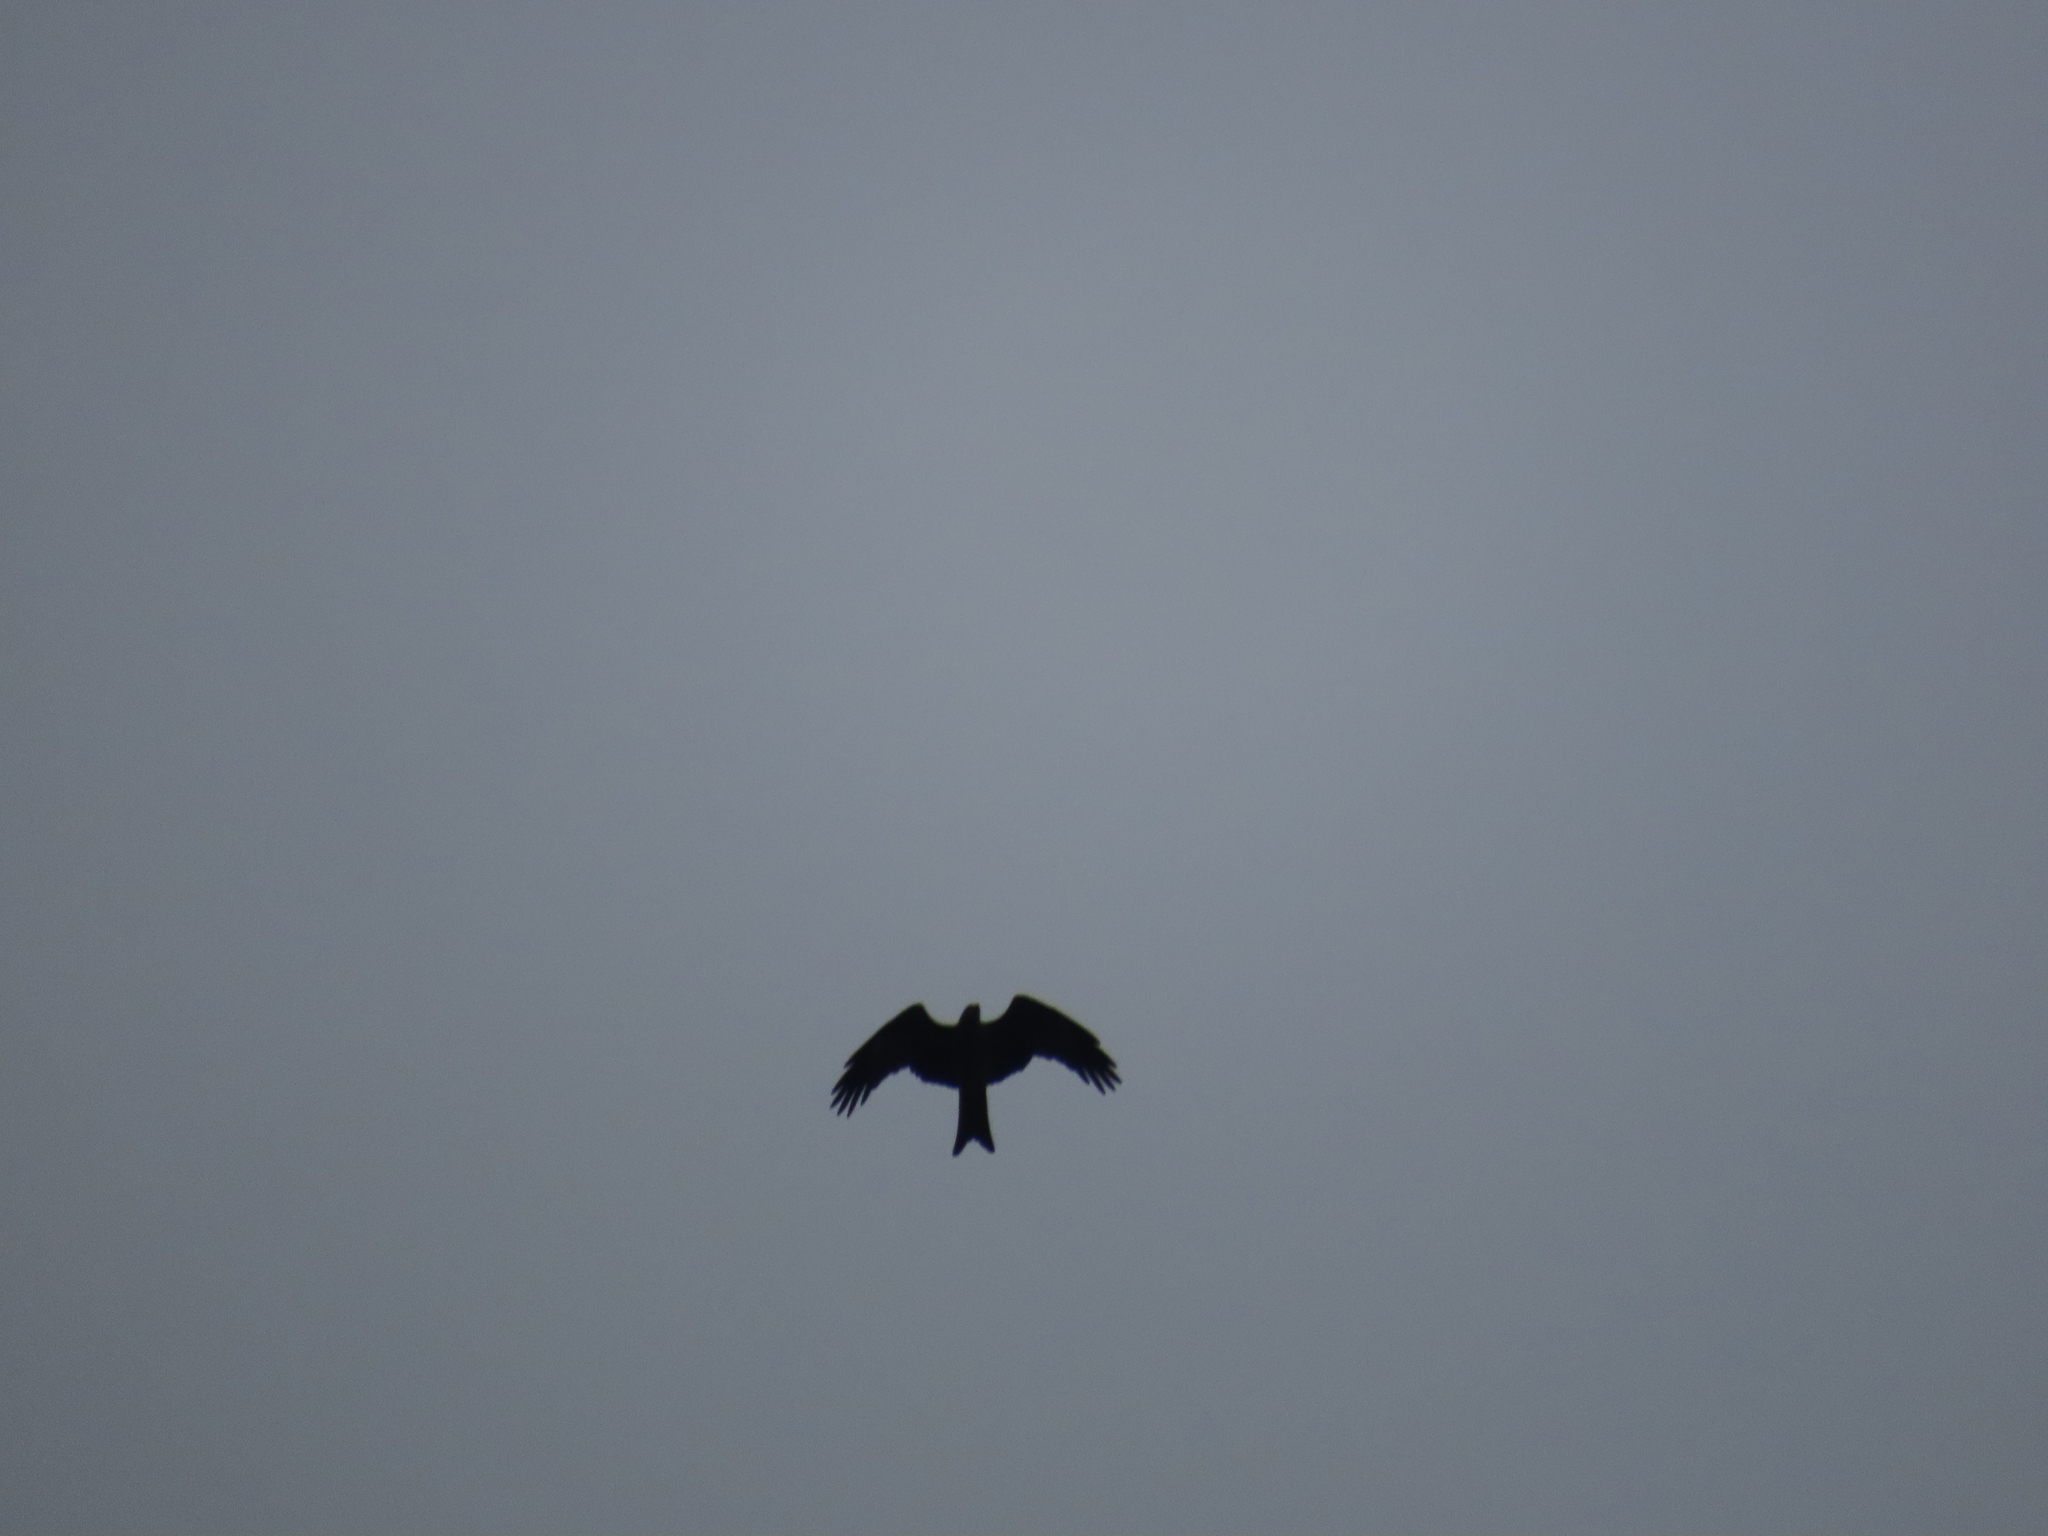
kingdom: Animalia
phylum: Chordata
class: Aves
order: Accipitriformes
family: Accipitridae
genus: Milvus
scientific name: Milvus migrans
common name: Black kite
